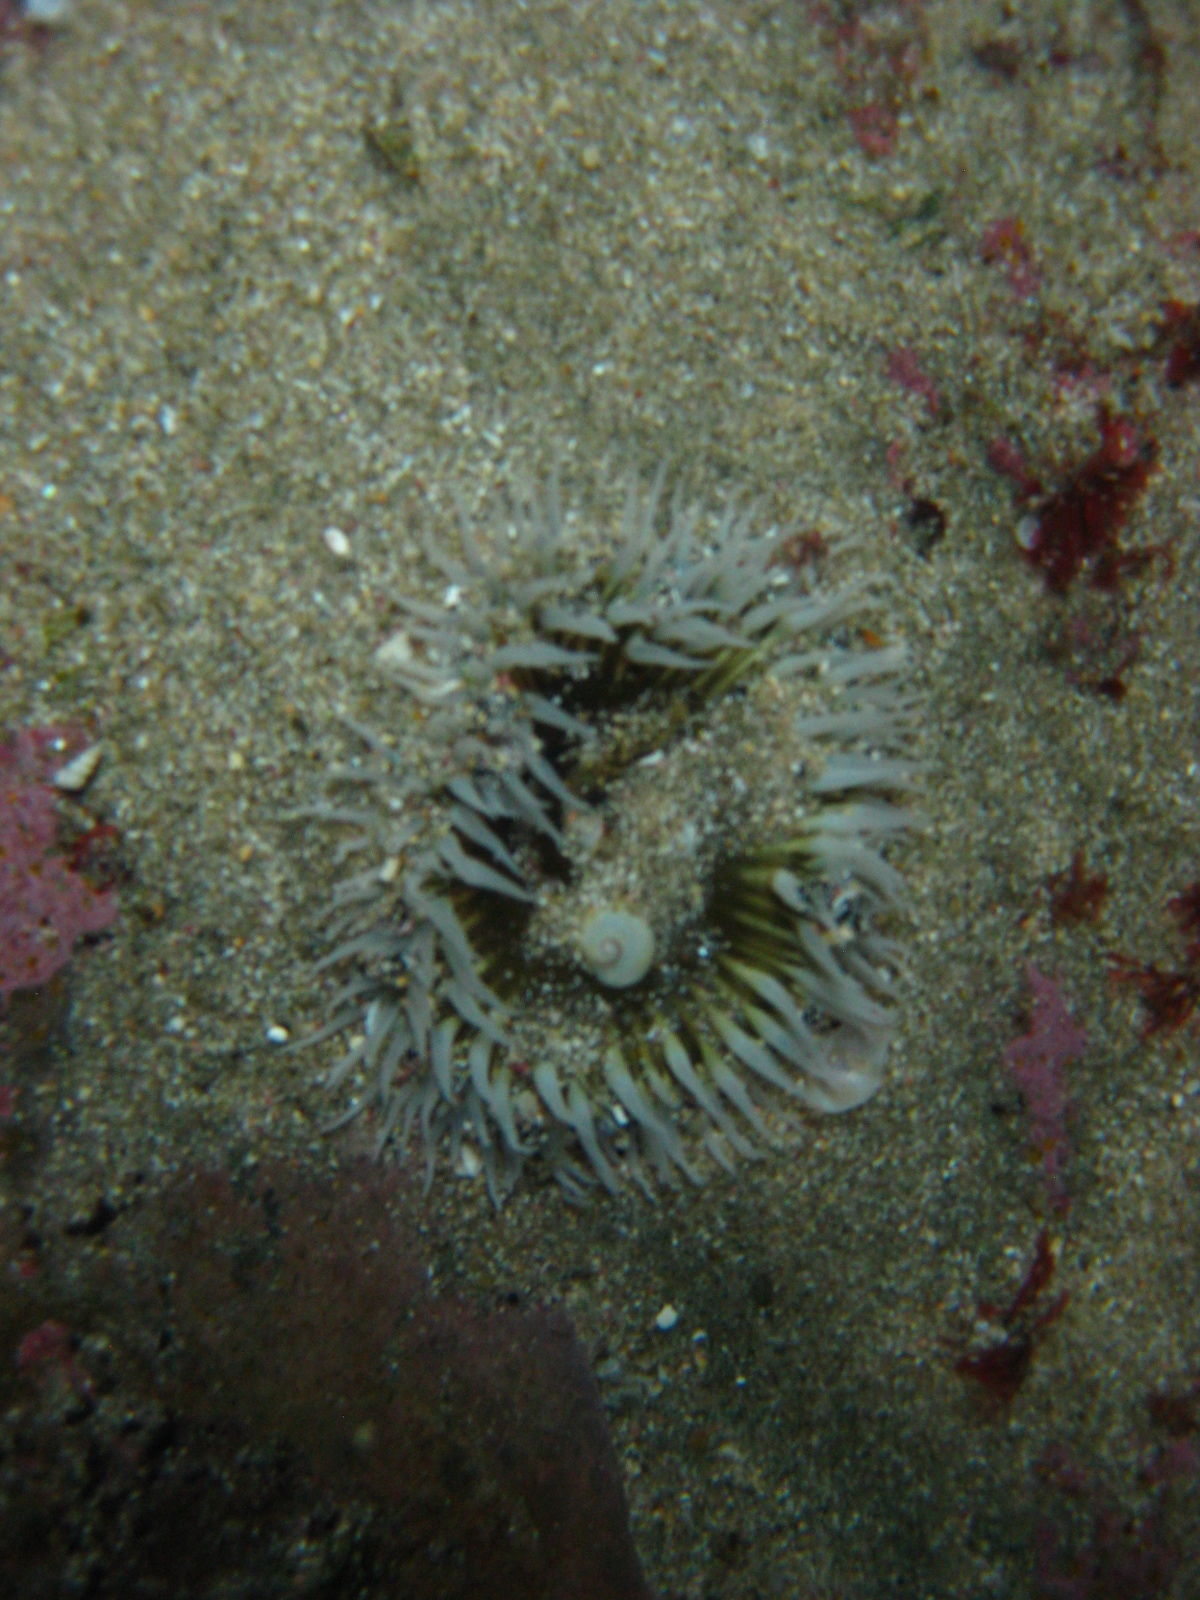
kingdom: Animalia
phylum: Cnidaria
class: Anthozoa
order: Actiniaria
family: Actiniidae
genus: Oulactis
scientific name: Oulactis magna
